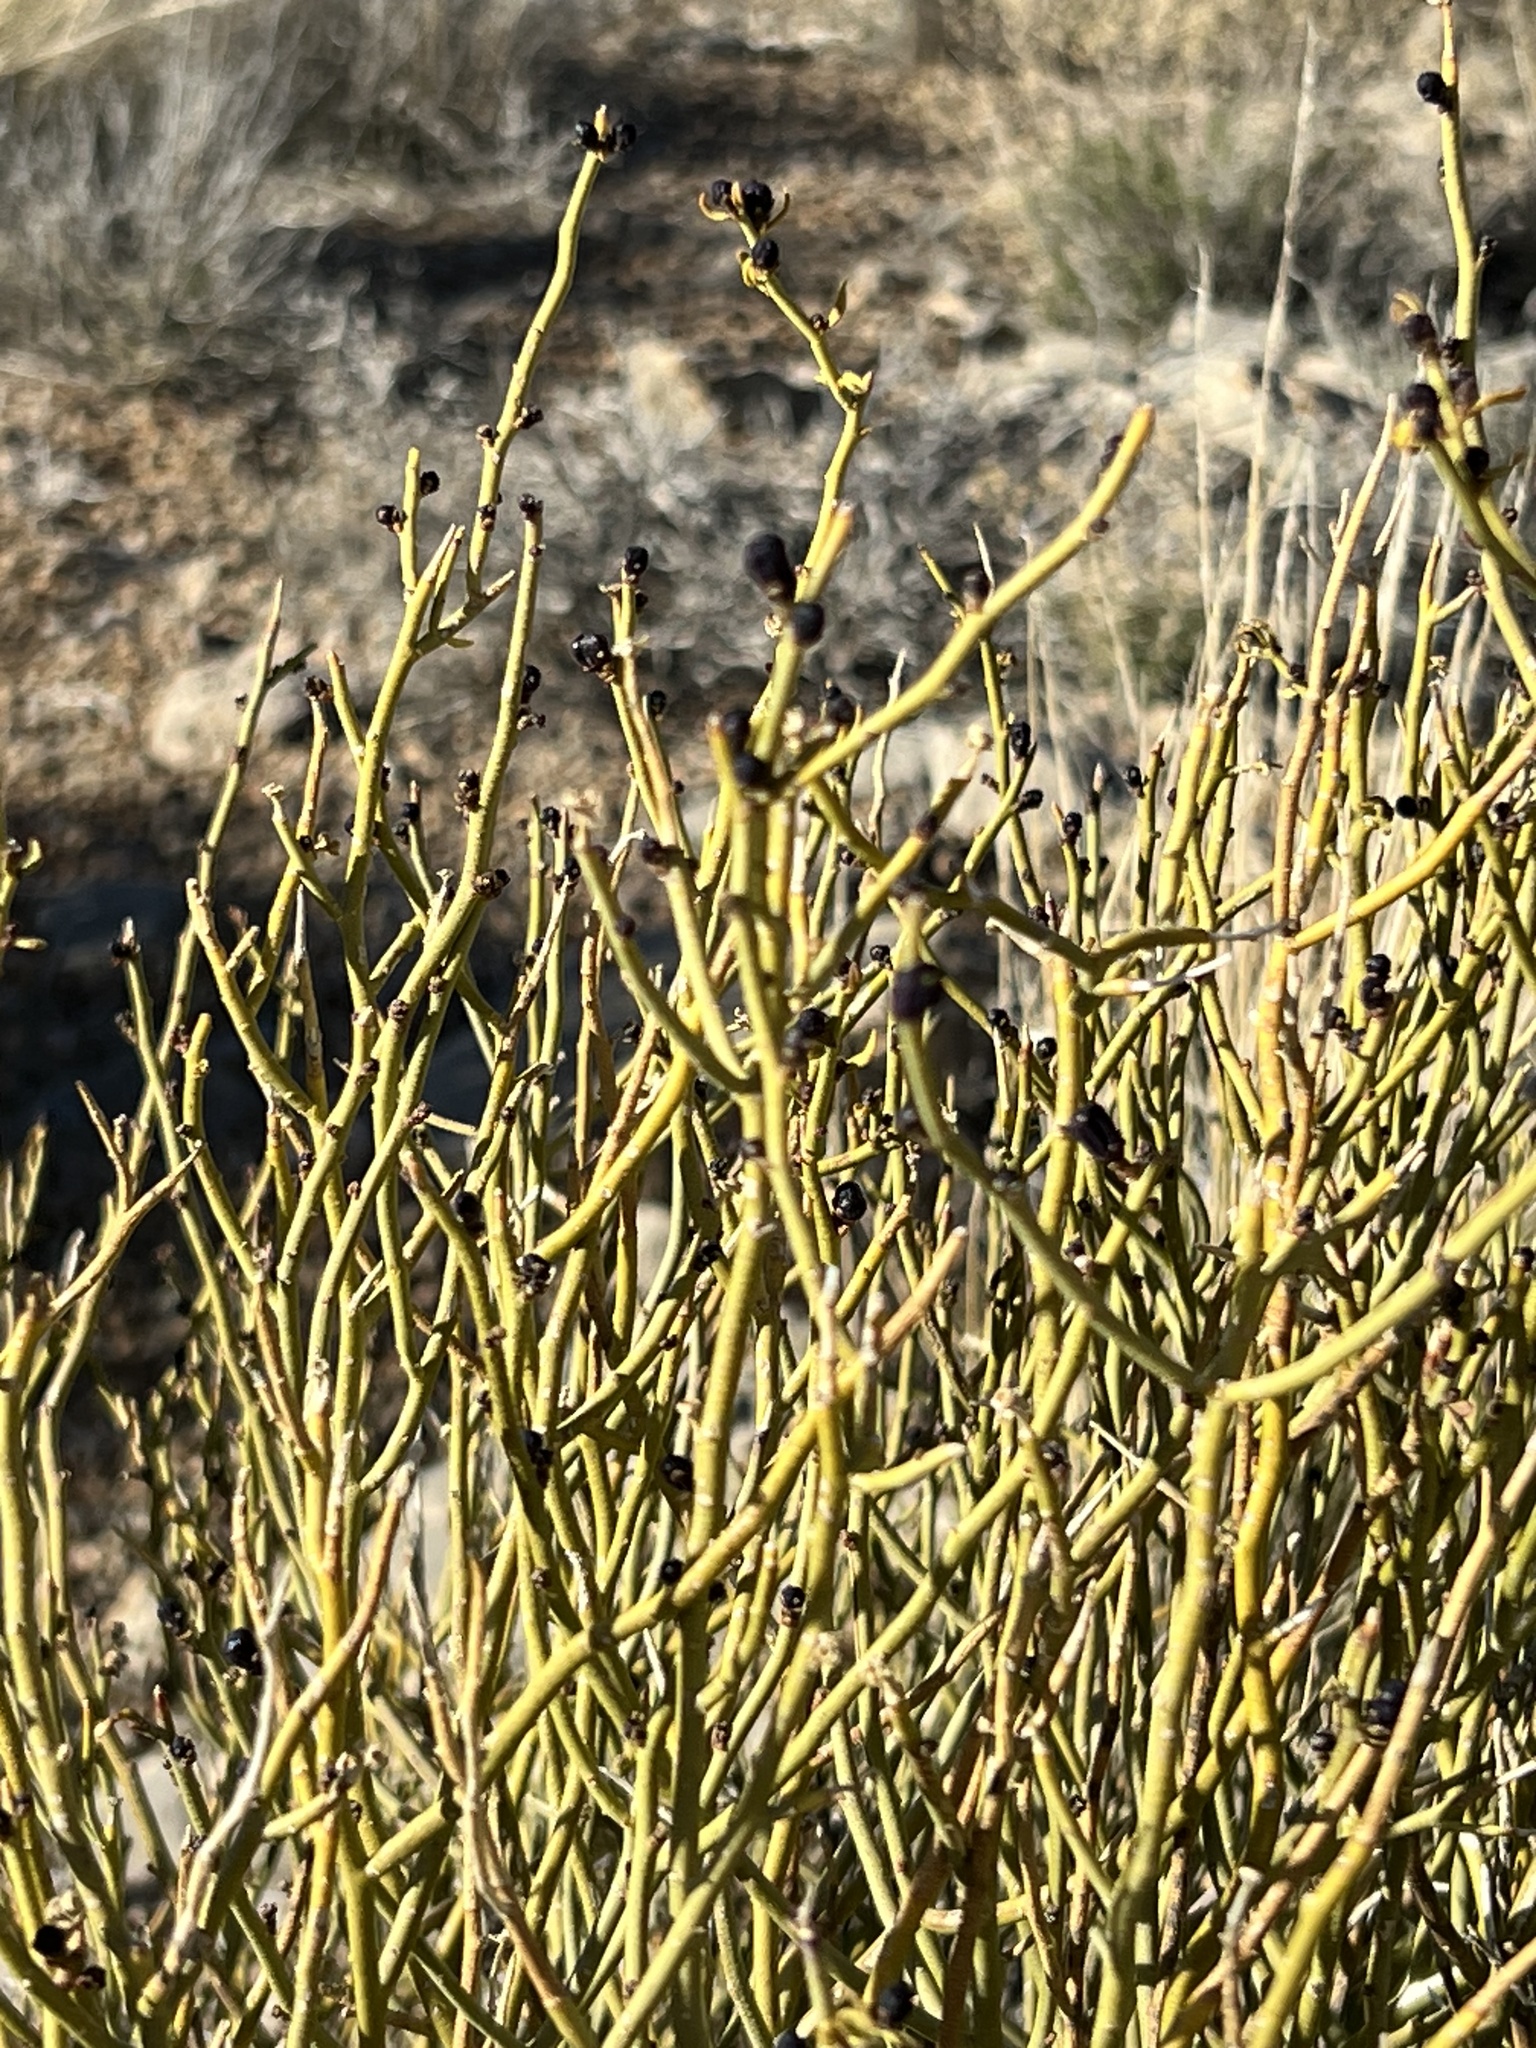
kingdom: Plantae
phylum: Tracheophyta
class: Magnoliopsida
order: Sapindales
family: Rutaceae
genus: Thamnosma
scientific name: Thamnosma montana
